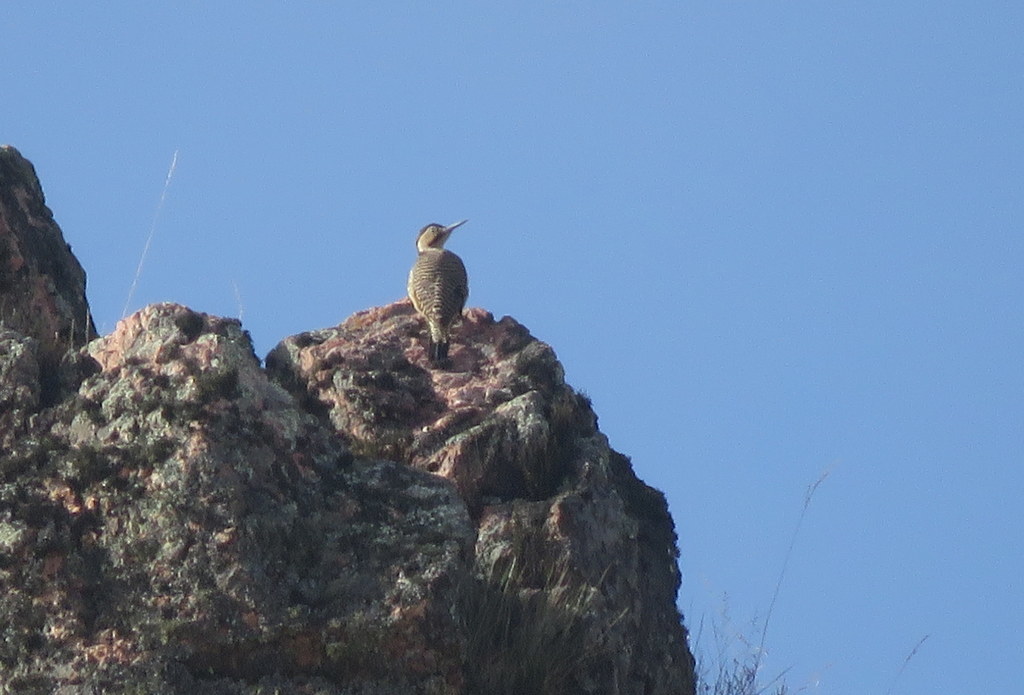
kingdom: Animalia
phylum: Chordata
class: Aves
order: Piciformes
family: Picidae
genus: Colaptes
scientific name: Colaptes rupicola
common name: Andean flicker
